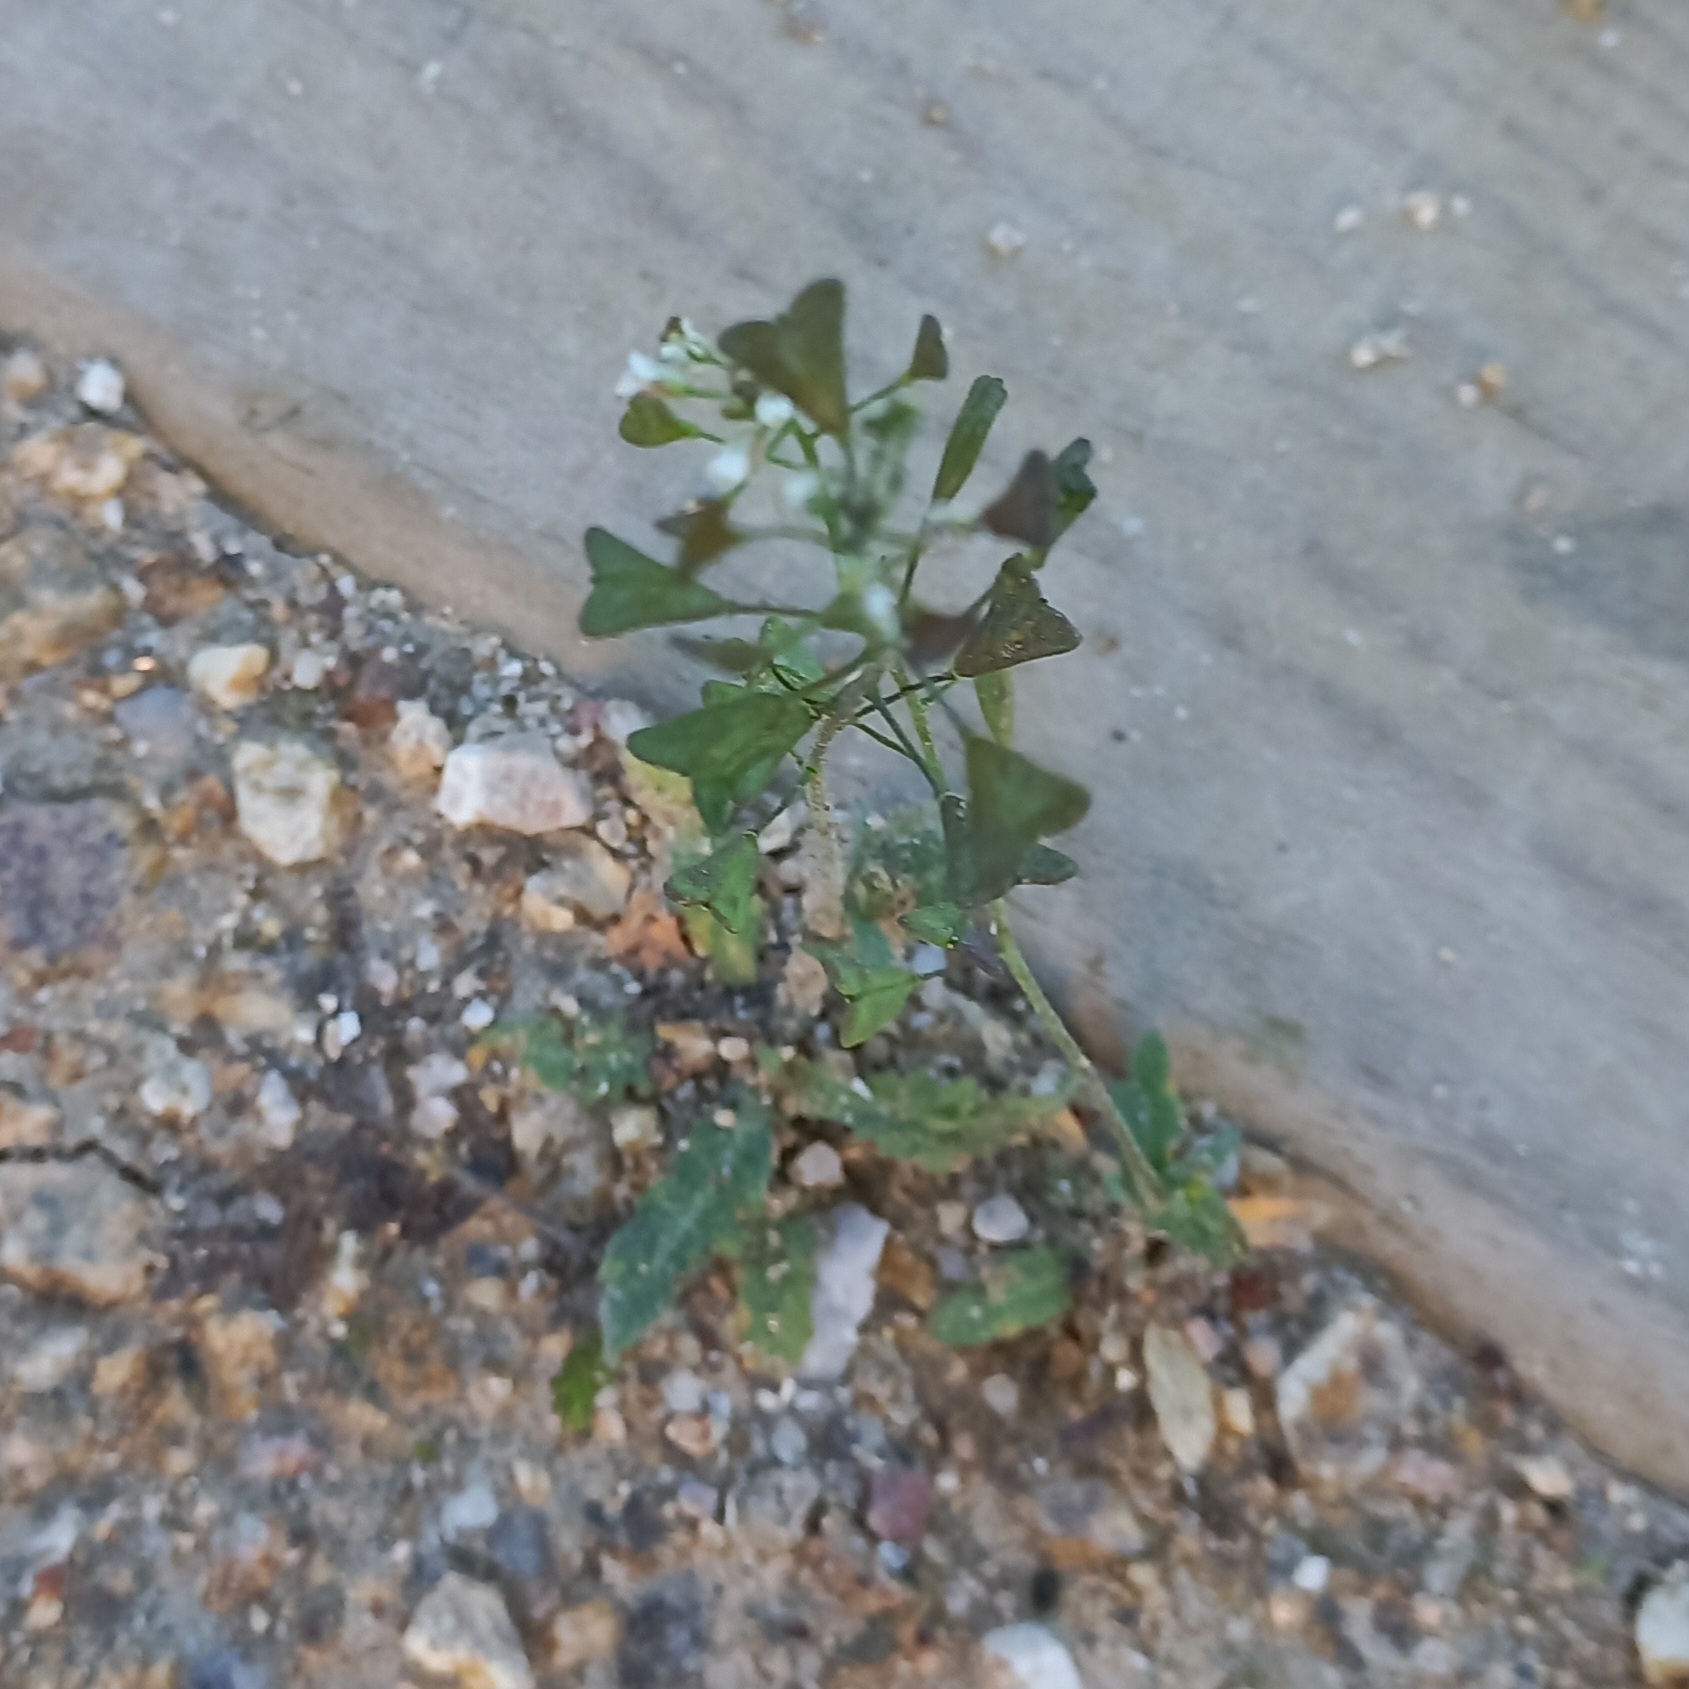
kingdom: Plantae
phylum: Tracheophyta
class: Magnoliopsida
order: Brassicales
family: Brassicaceae
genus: Capsella
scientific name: Capsella bursa-pastoris
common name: Shepherd's purse
